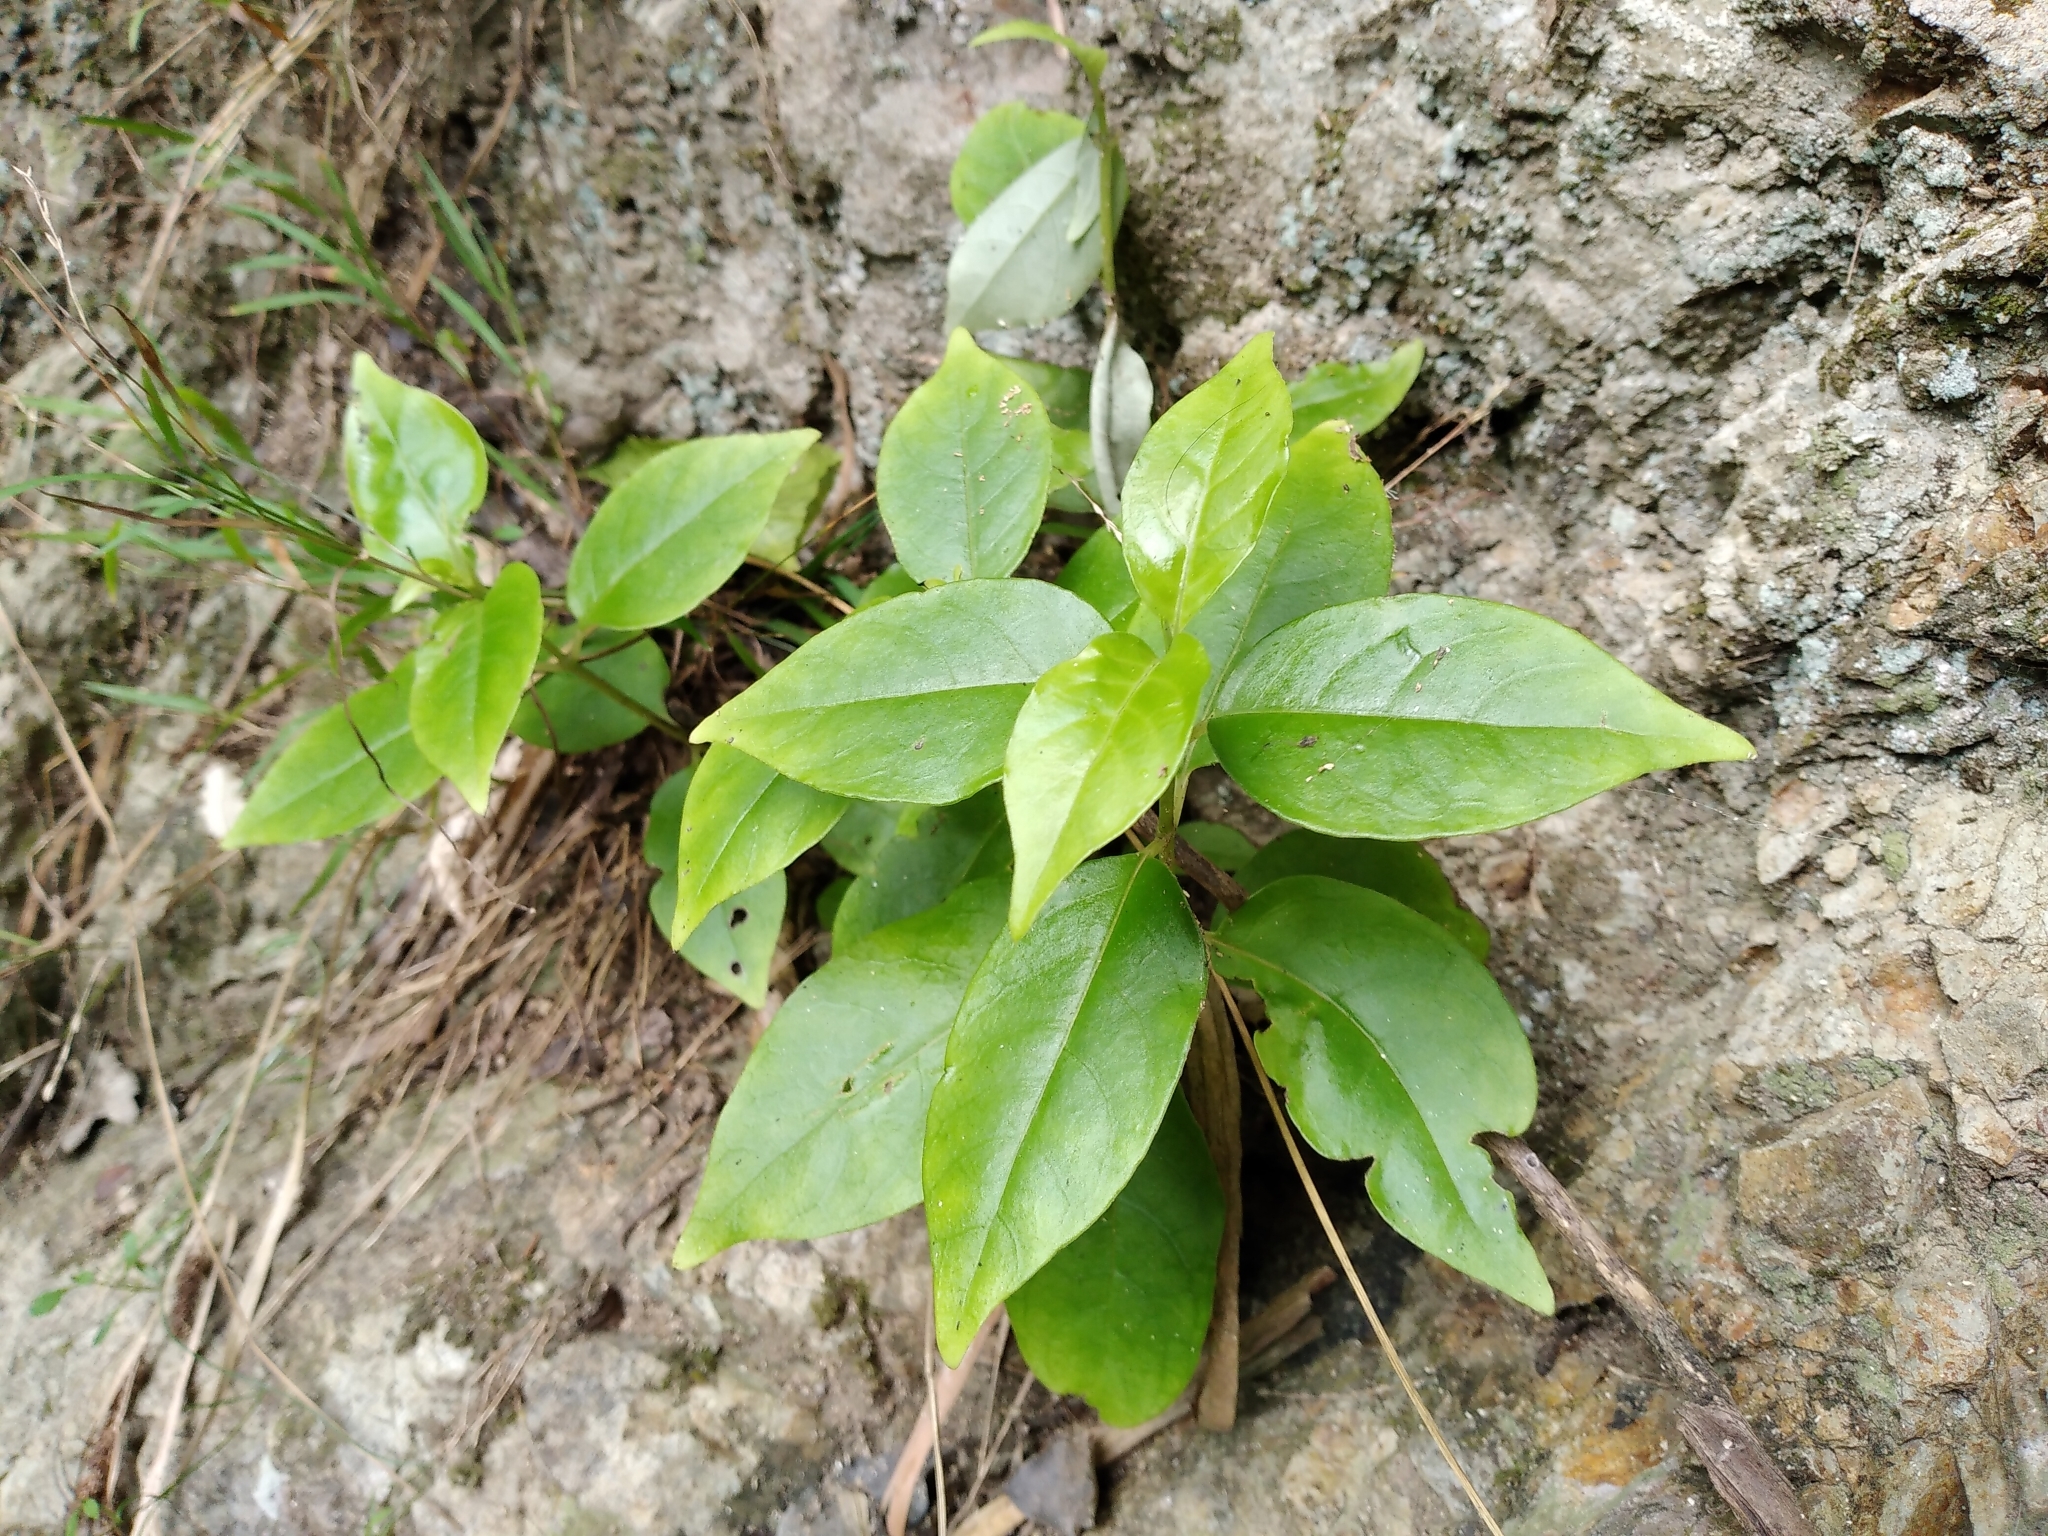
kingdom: Plantae
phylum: Tracheophyta
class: Magnoliopsida
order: Gentianales
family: Loganiaceae
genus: Geniostoma
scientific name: Geniostoma ligustrifolium
